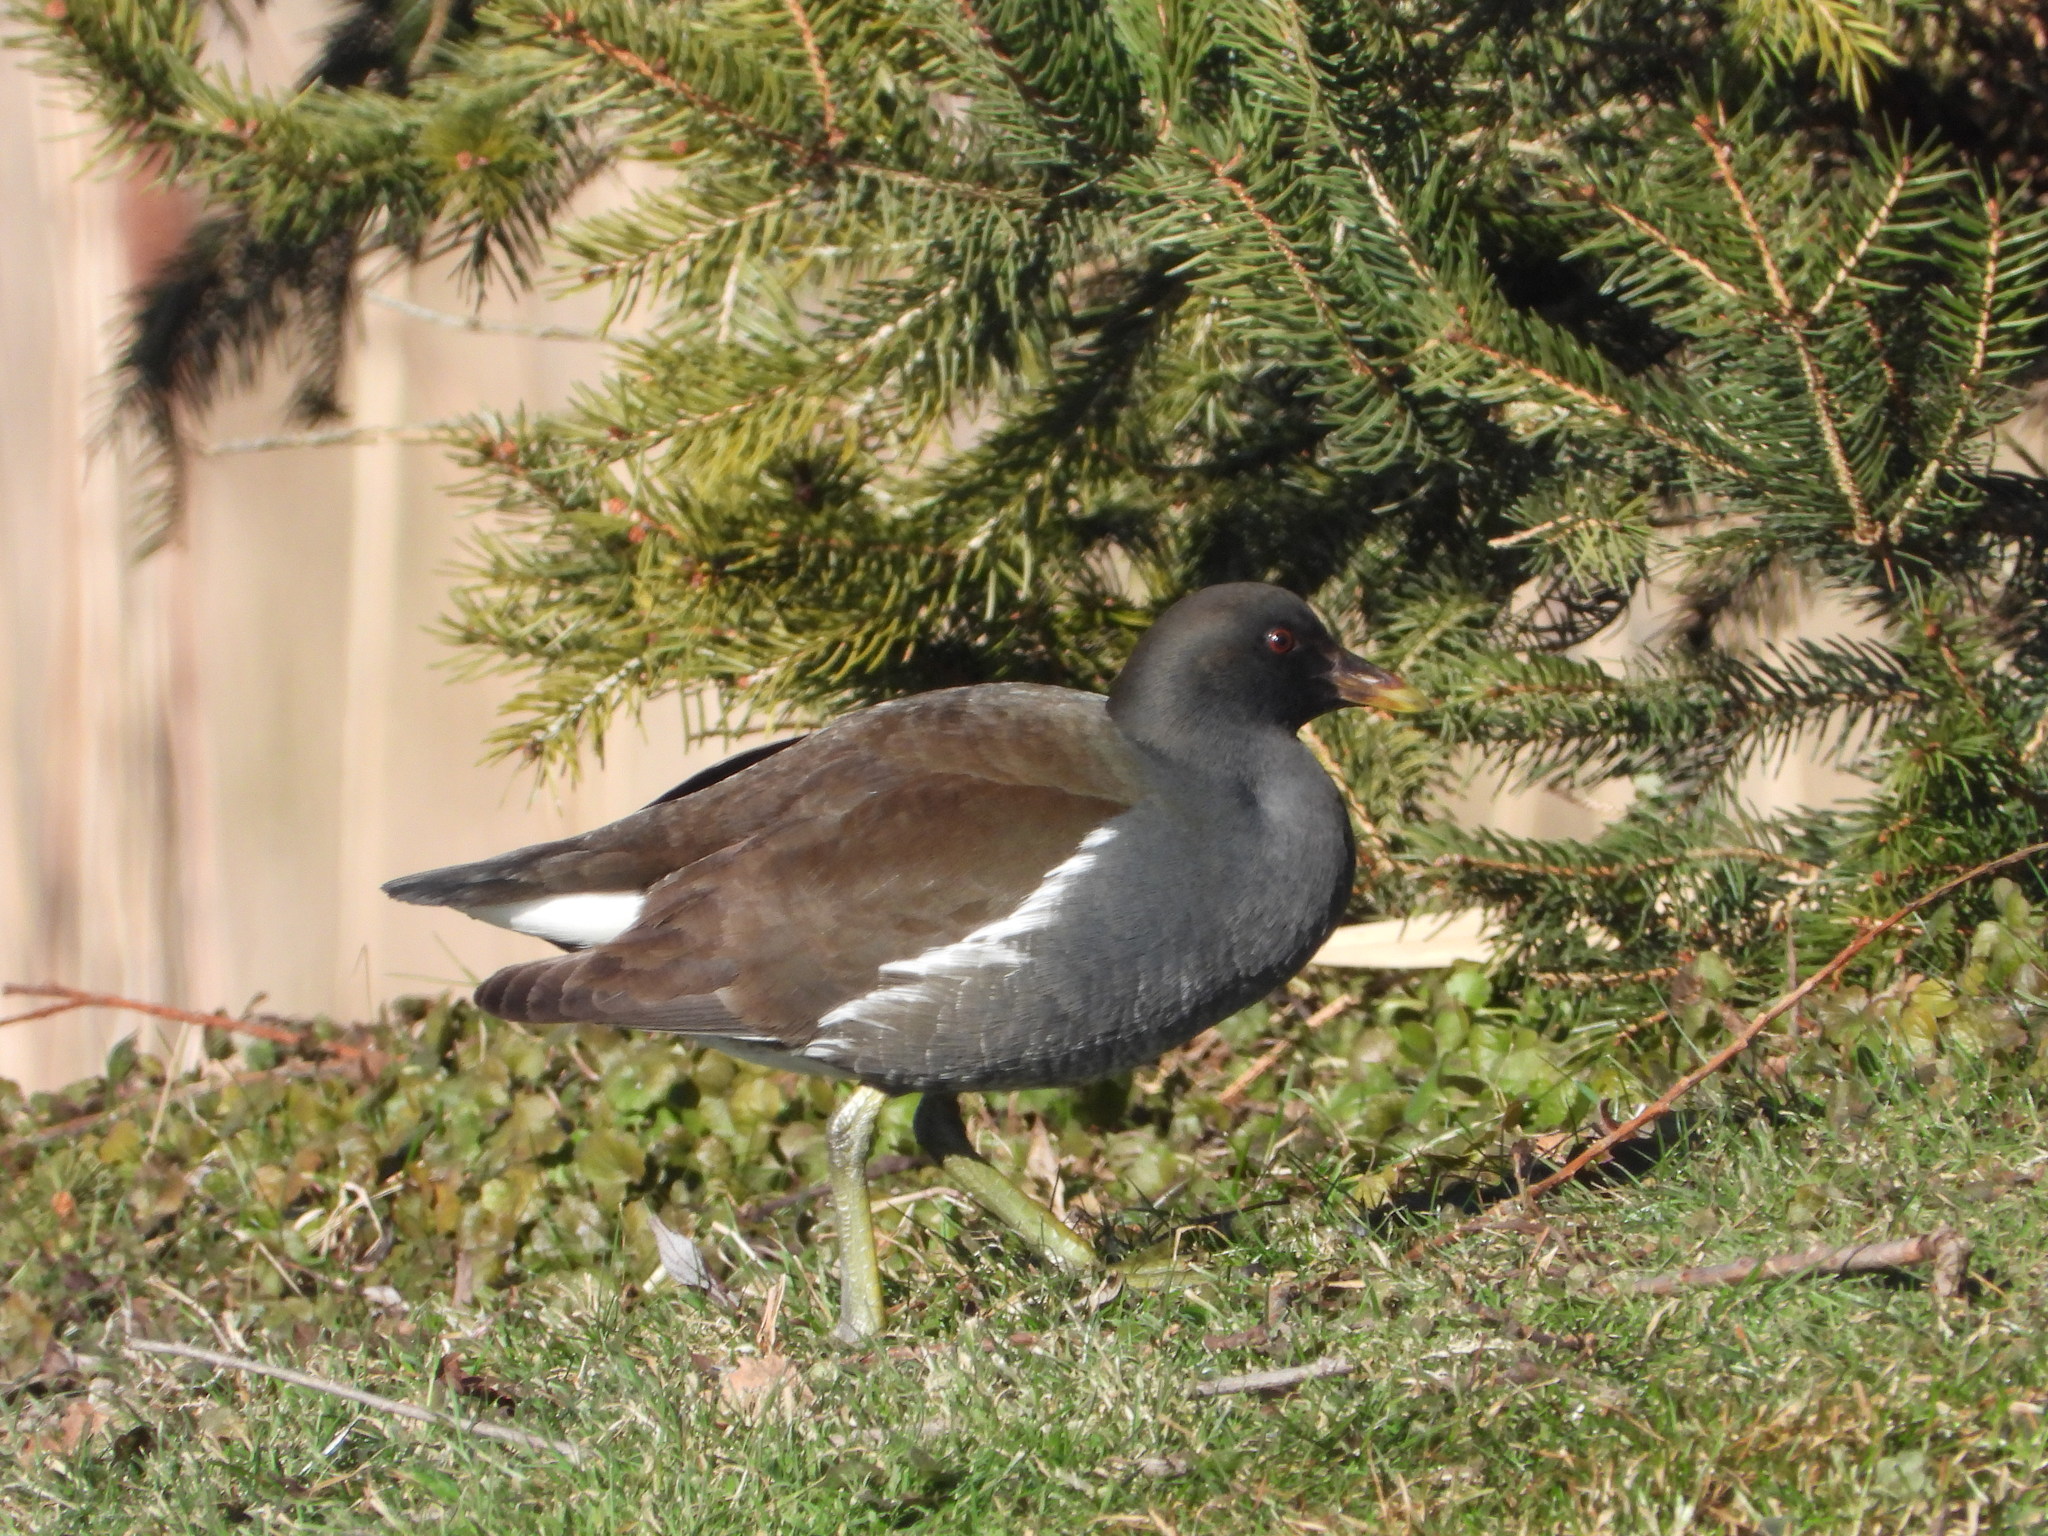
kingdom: Animalia
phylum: Chordata
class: Aves
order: Gruiformes
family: Rallidae
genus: Gallinula
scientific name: Gallinula chloropus
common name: Common moorhen
